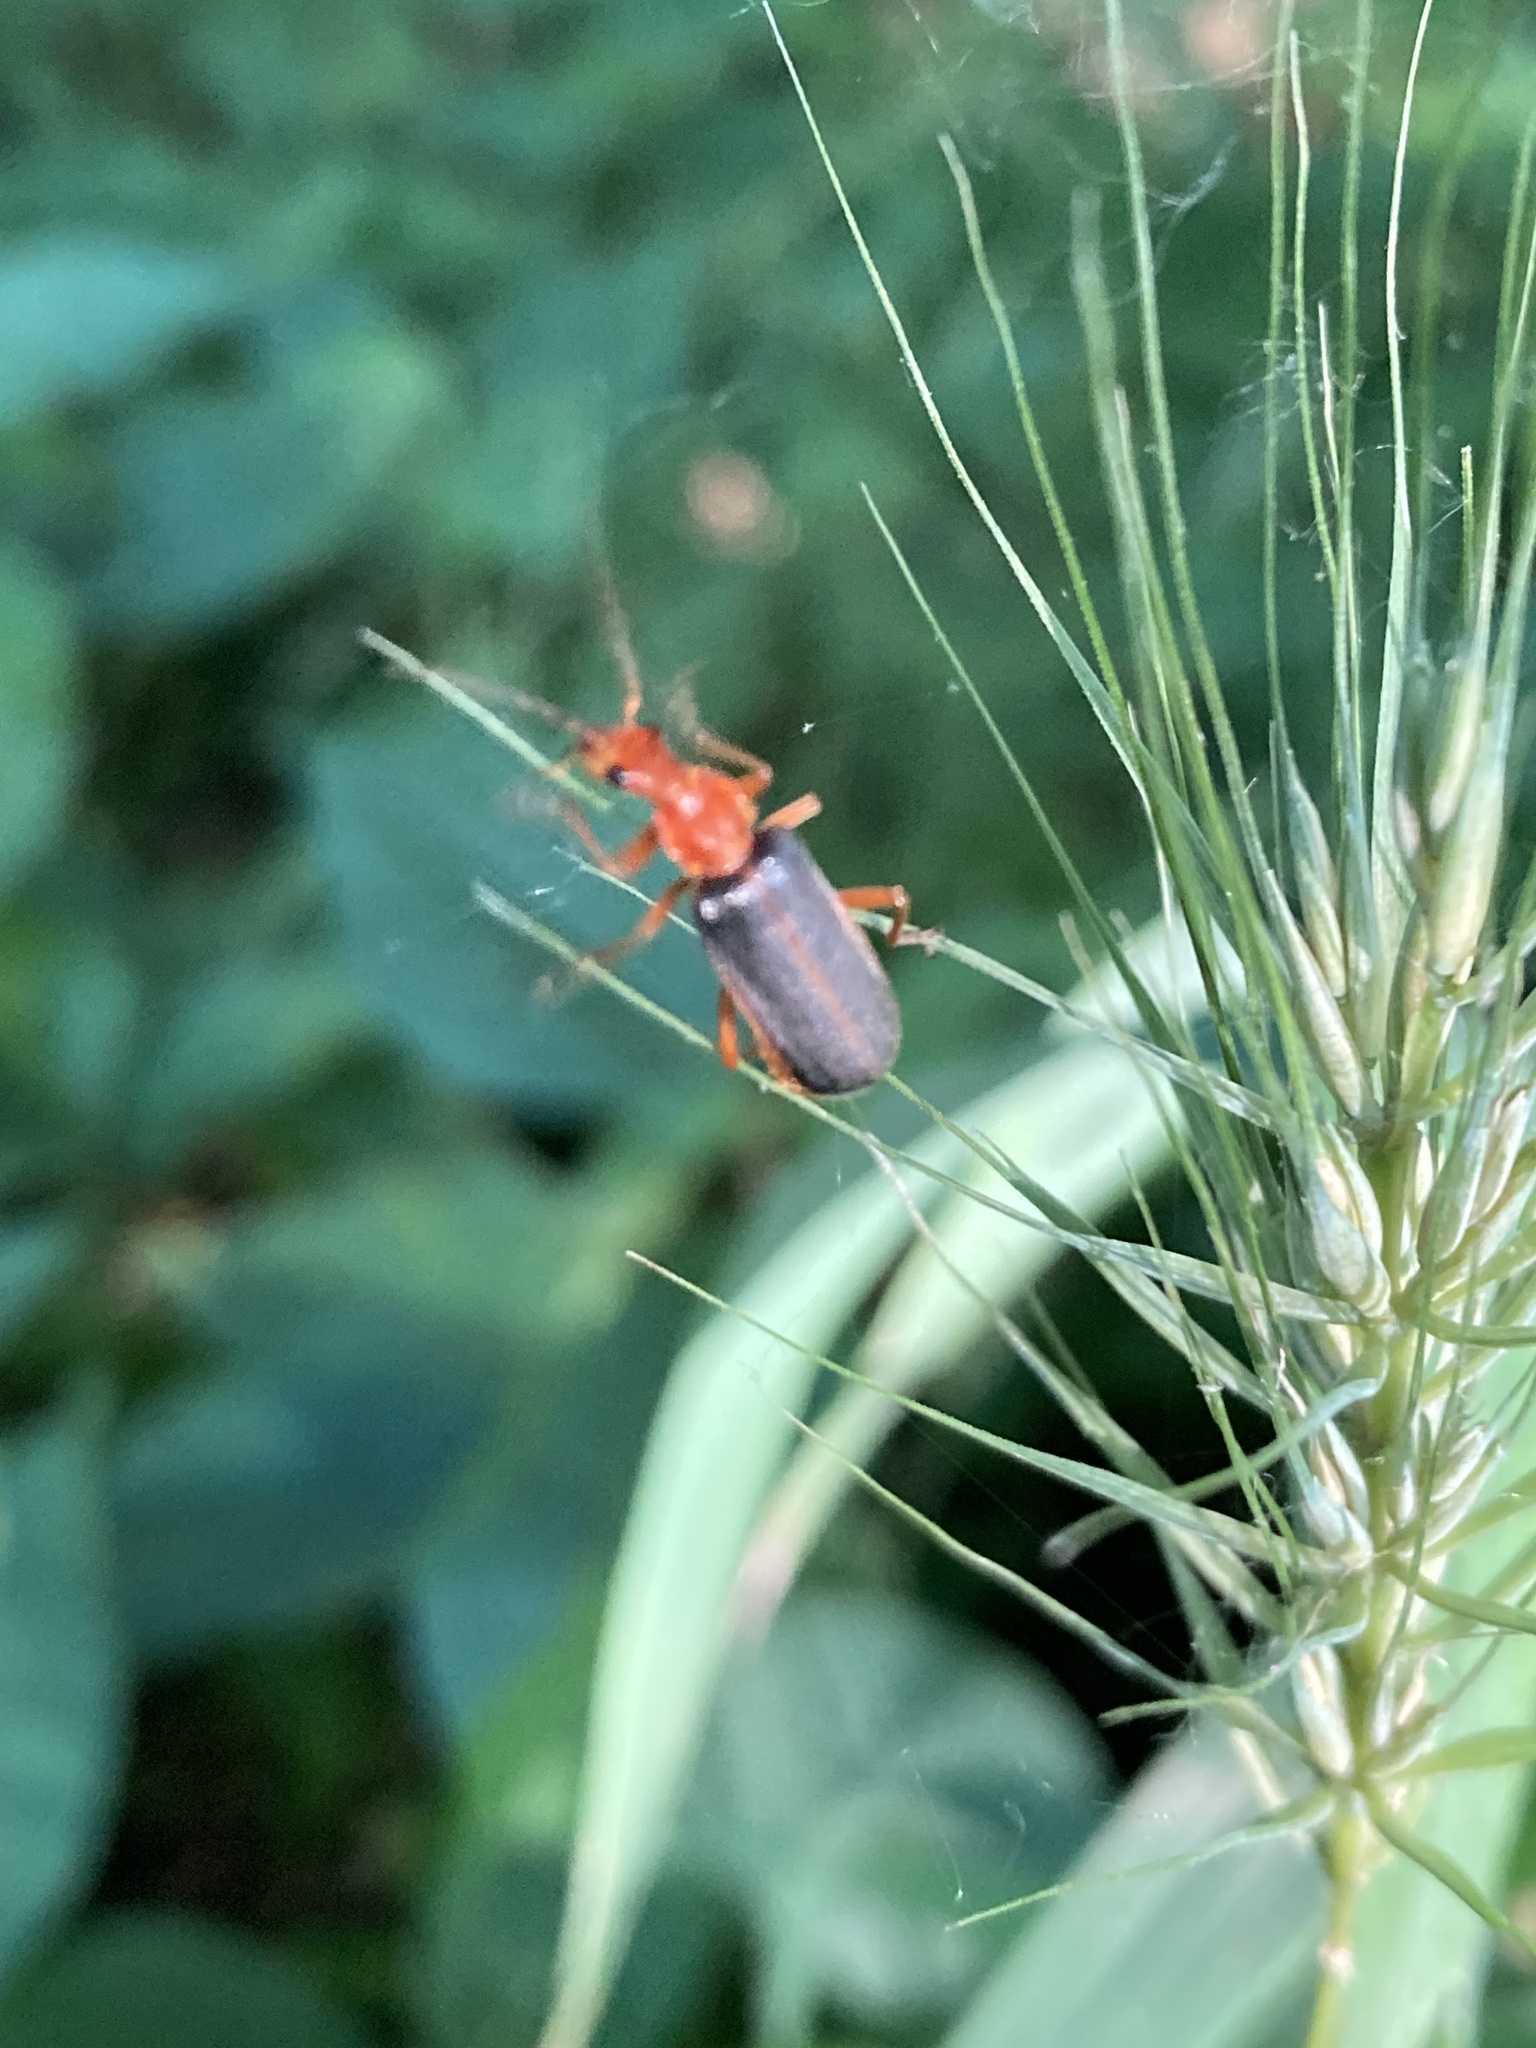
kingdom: Animalia
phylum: Arthropoda
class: Insecta
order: Coleoptera
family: Cantharidae
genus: Podabrus
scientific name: Podabrus tomentosus
